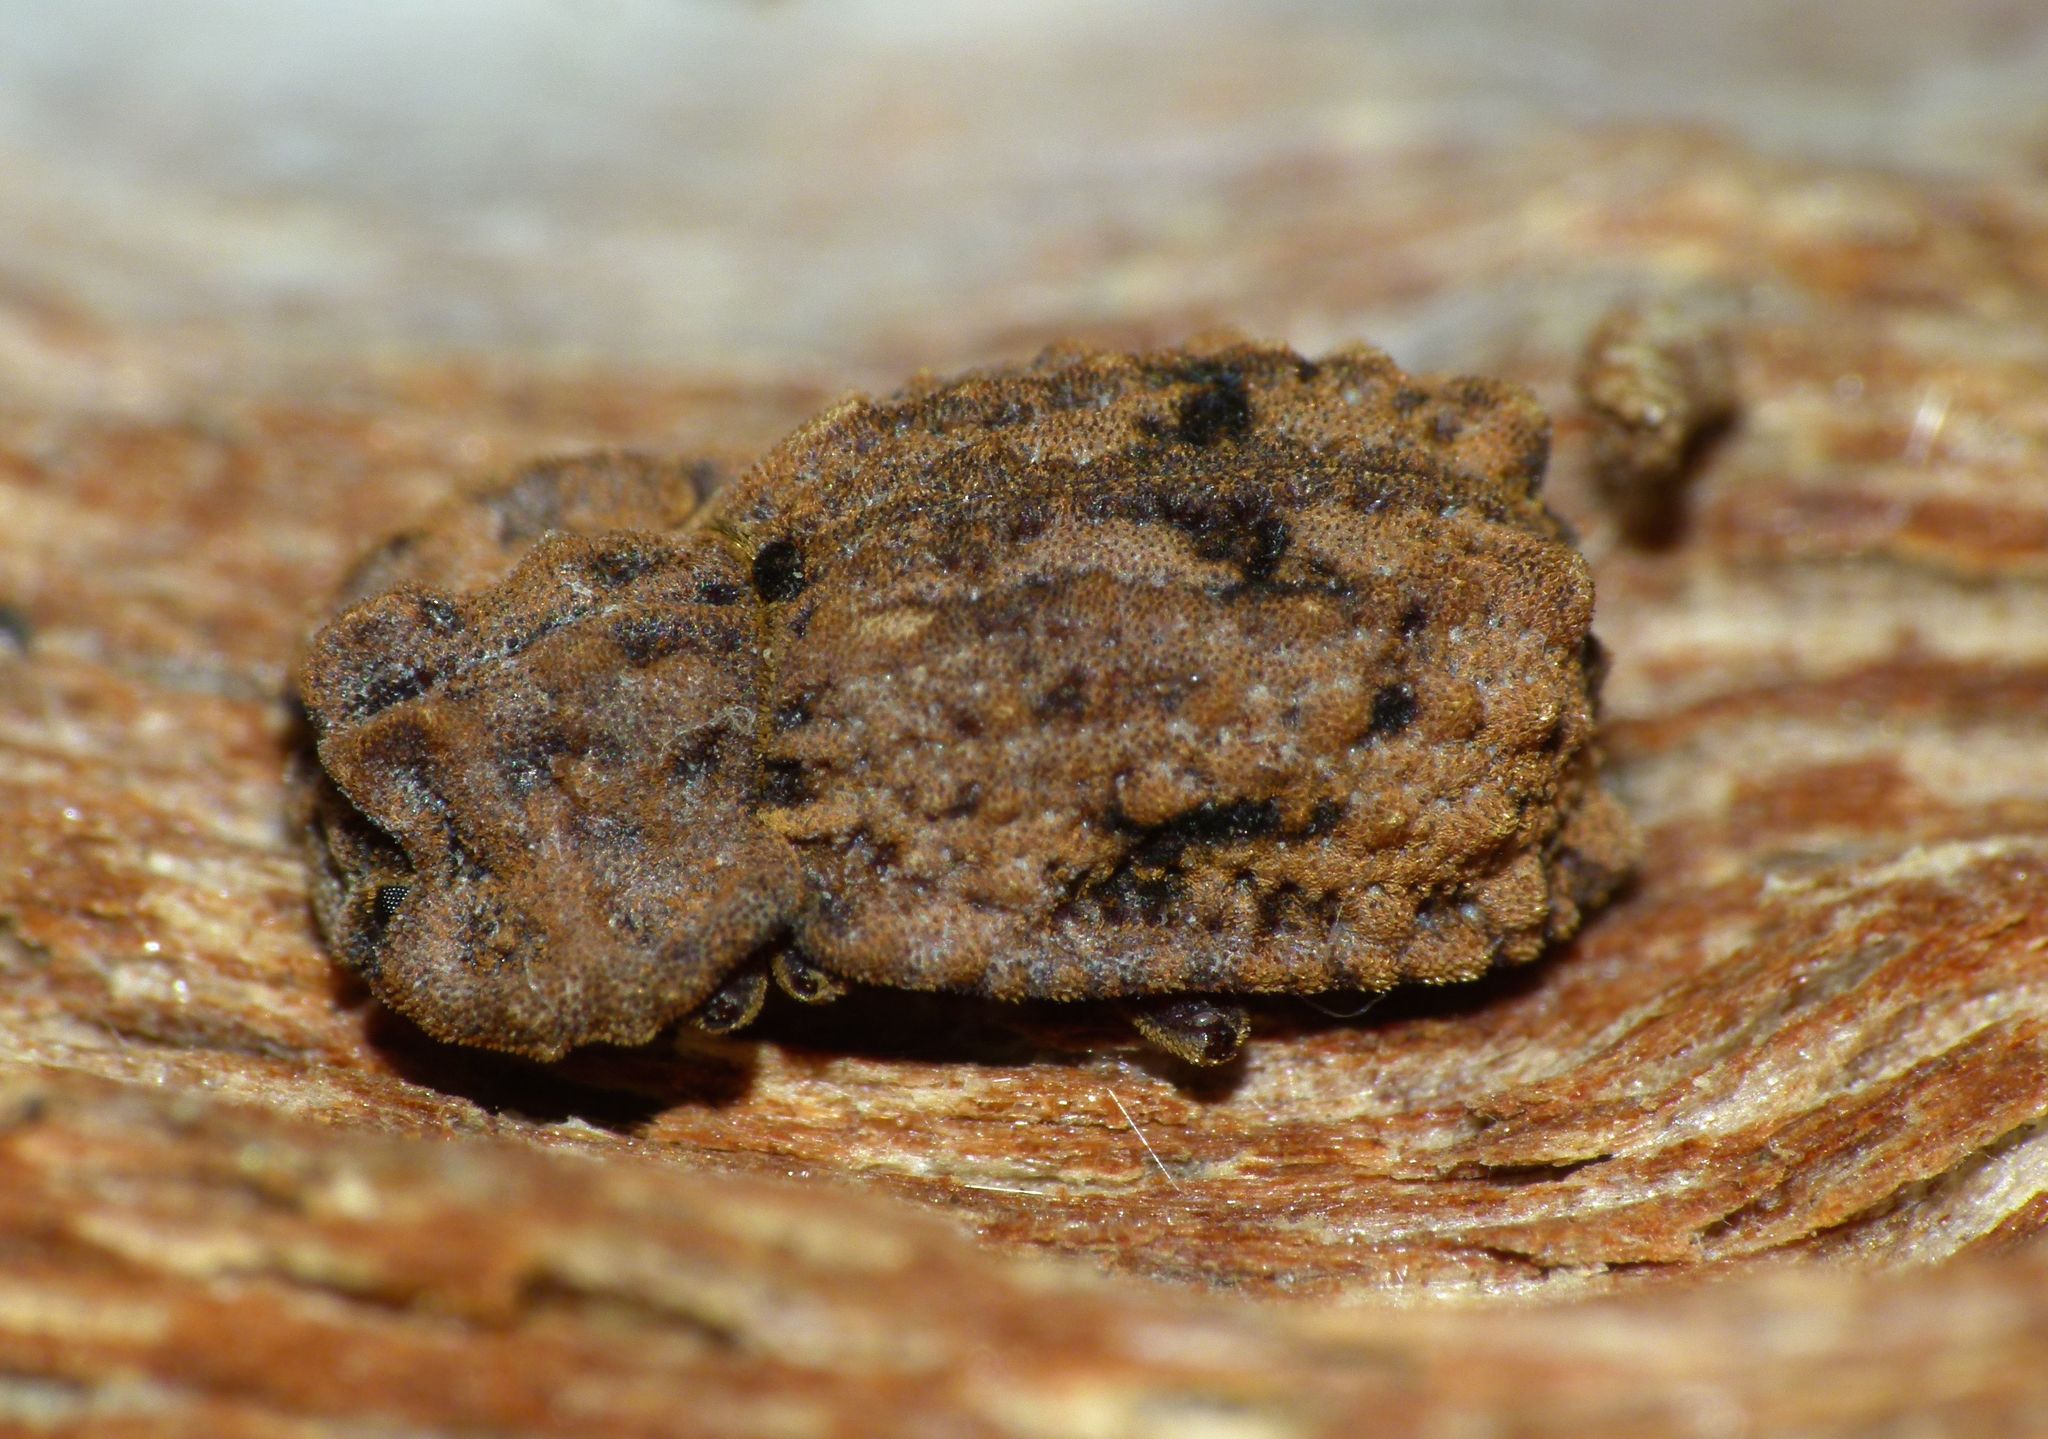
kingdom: Animalia
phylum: Arthropoda
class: Insecta
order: Coleoptera
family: Zopheridae
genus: Pristoderus
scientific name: Pristoderus
